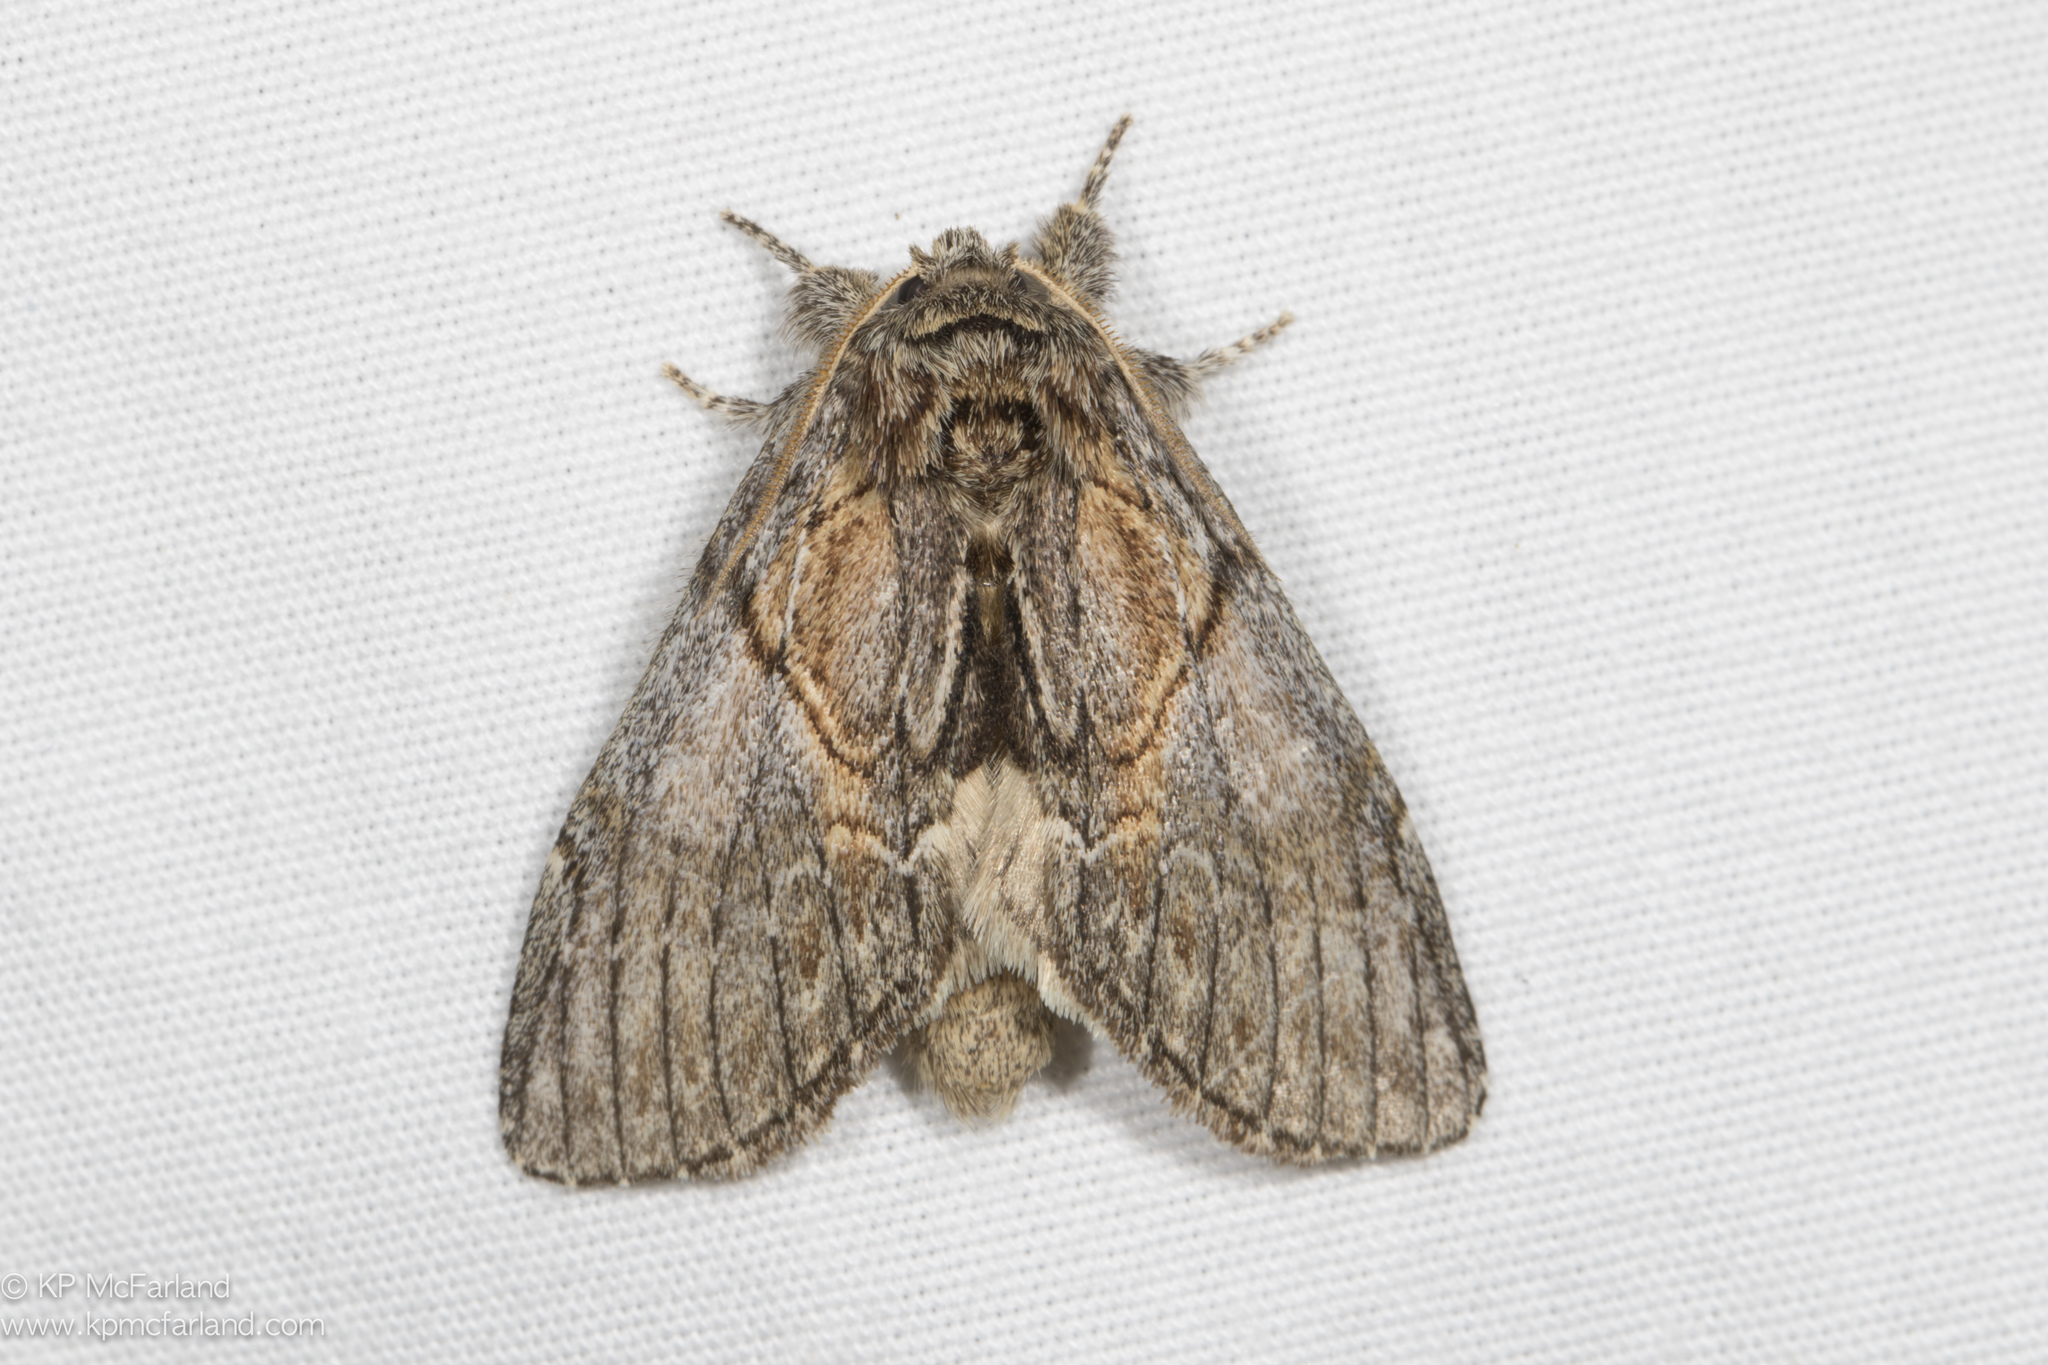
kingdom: Animalia
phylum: Arthropoda
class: Insecta
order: Lepidoptera
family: Notodontidae
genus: Peridea
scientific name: Peridea basitriens
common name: Oval-based prominent
